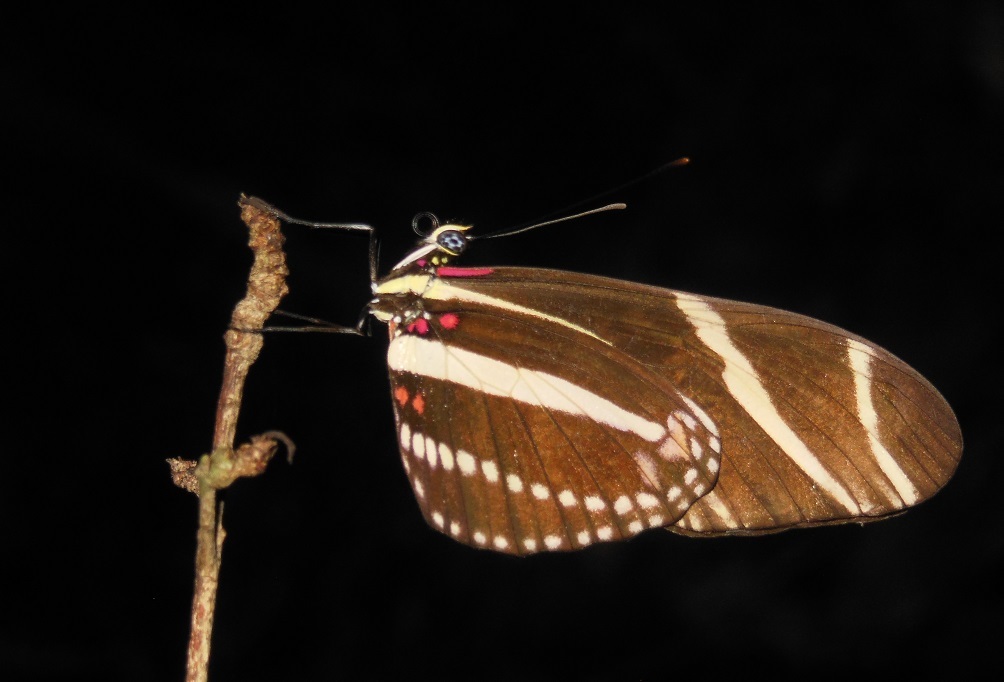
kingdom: Animalia
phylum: Arthropoda
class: Insecta
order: Lepidoptera
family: Nymphalidae
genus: Heliconius
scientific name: Heliconius charithonia
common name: Zebra long wing
